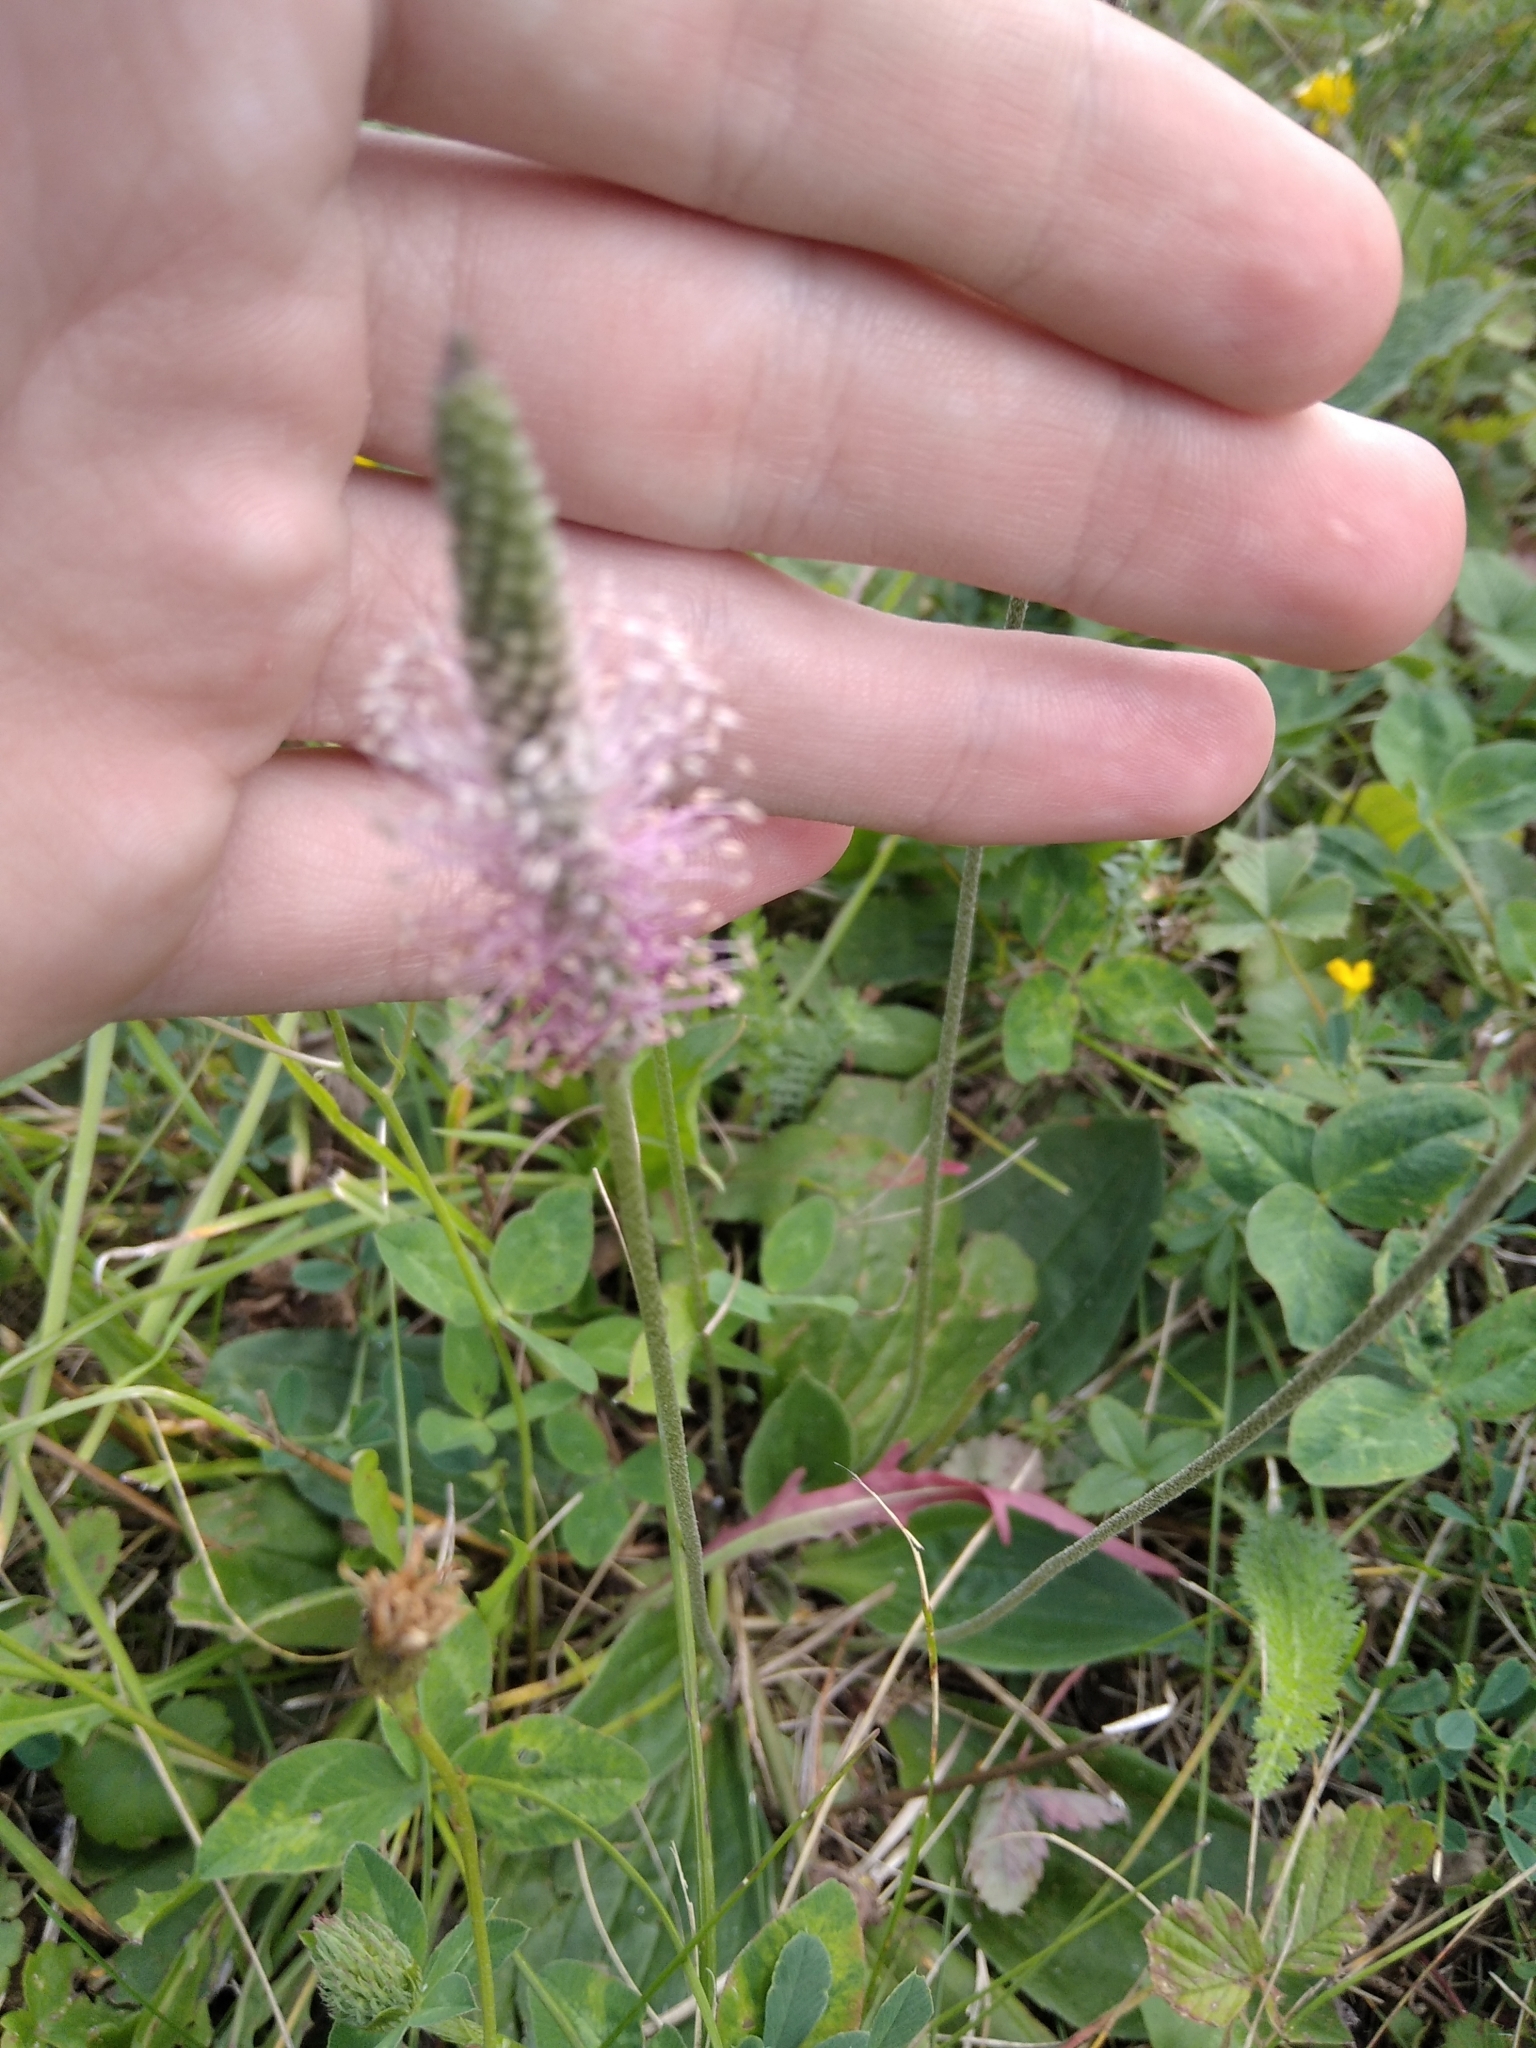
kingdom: Plantae
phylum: Tracheophyta
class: Magnoliopsida
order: Lamiales
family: Plantaginaceae
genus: Plantago
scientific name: Plantago media
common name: Hoary plantain
